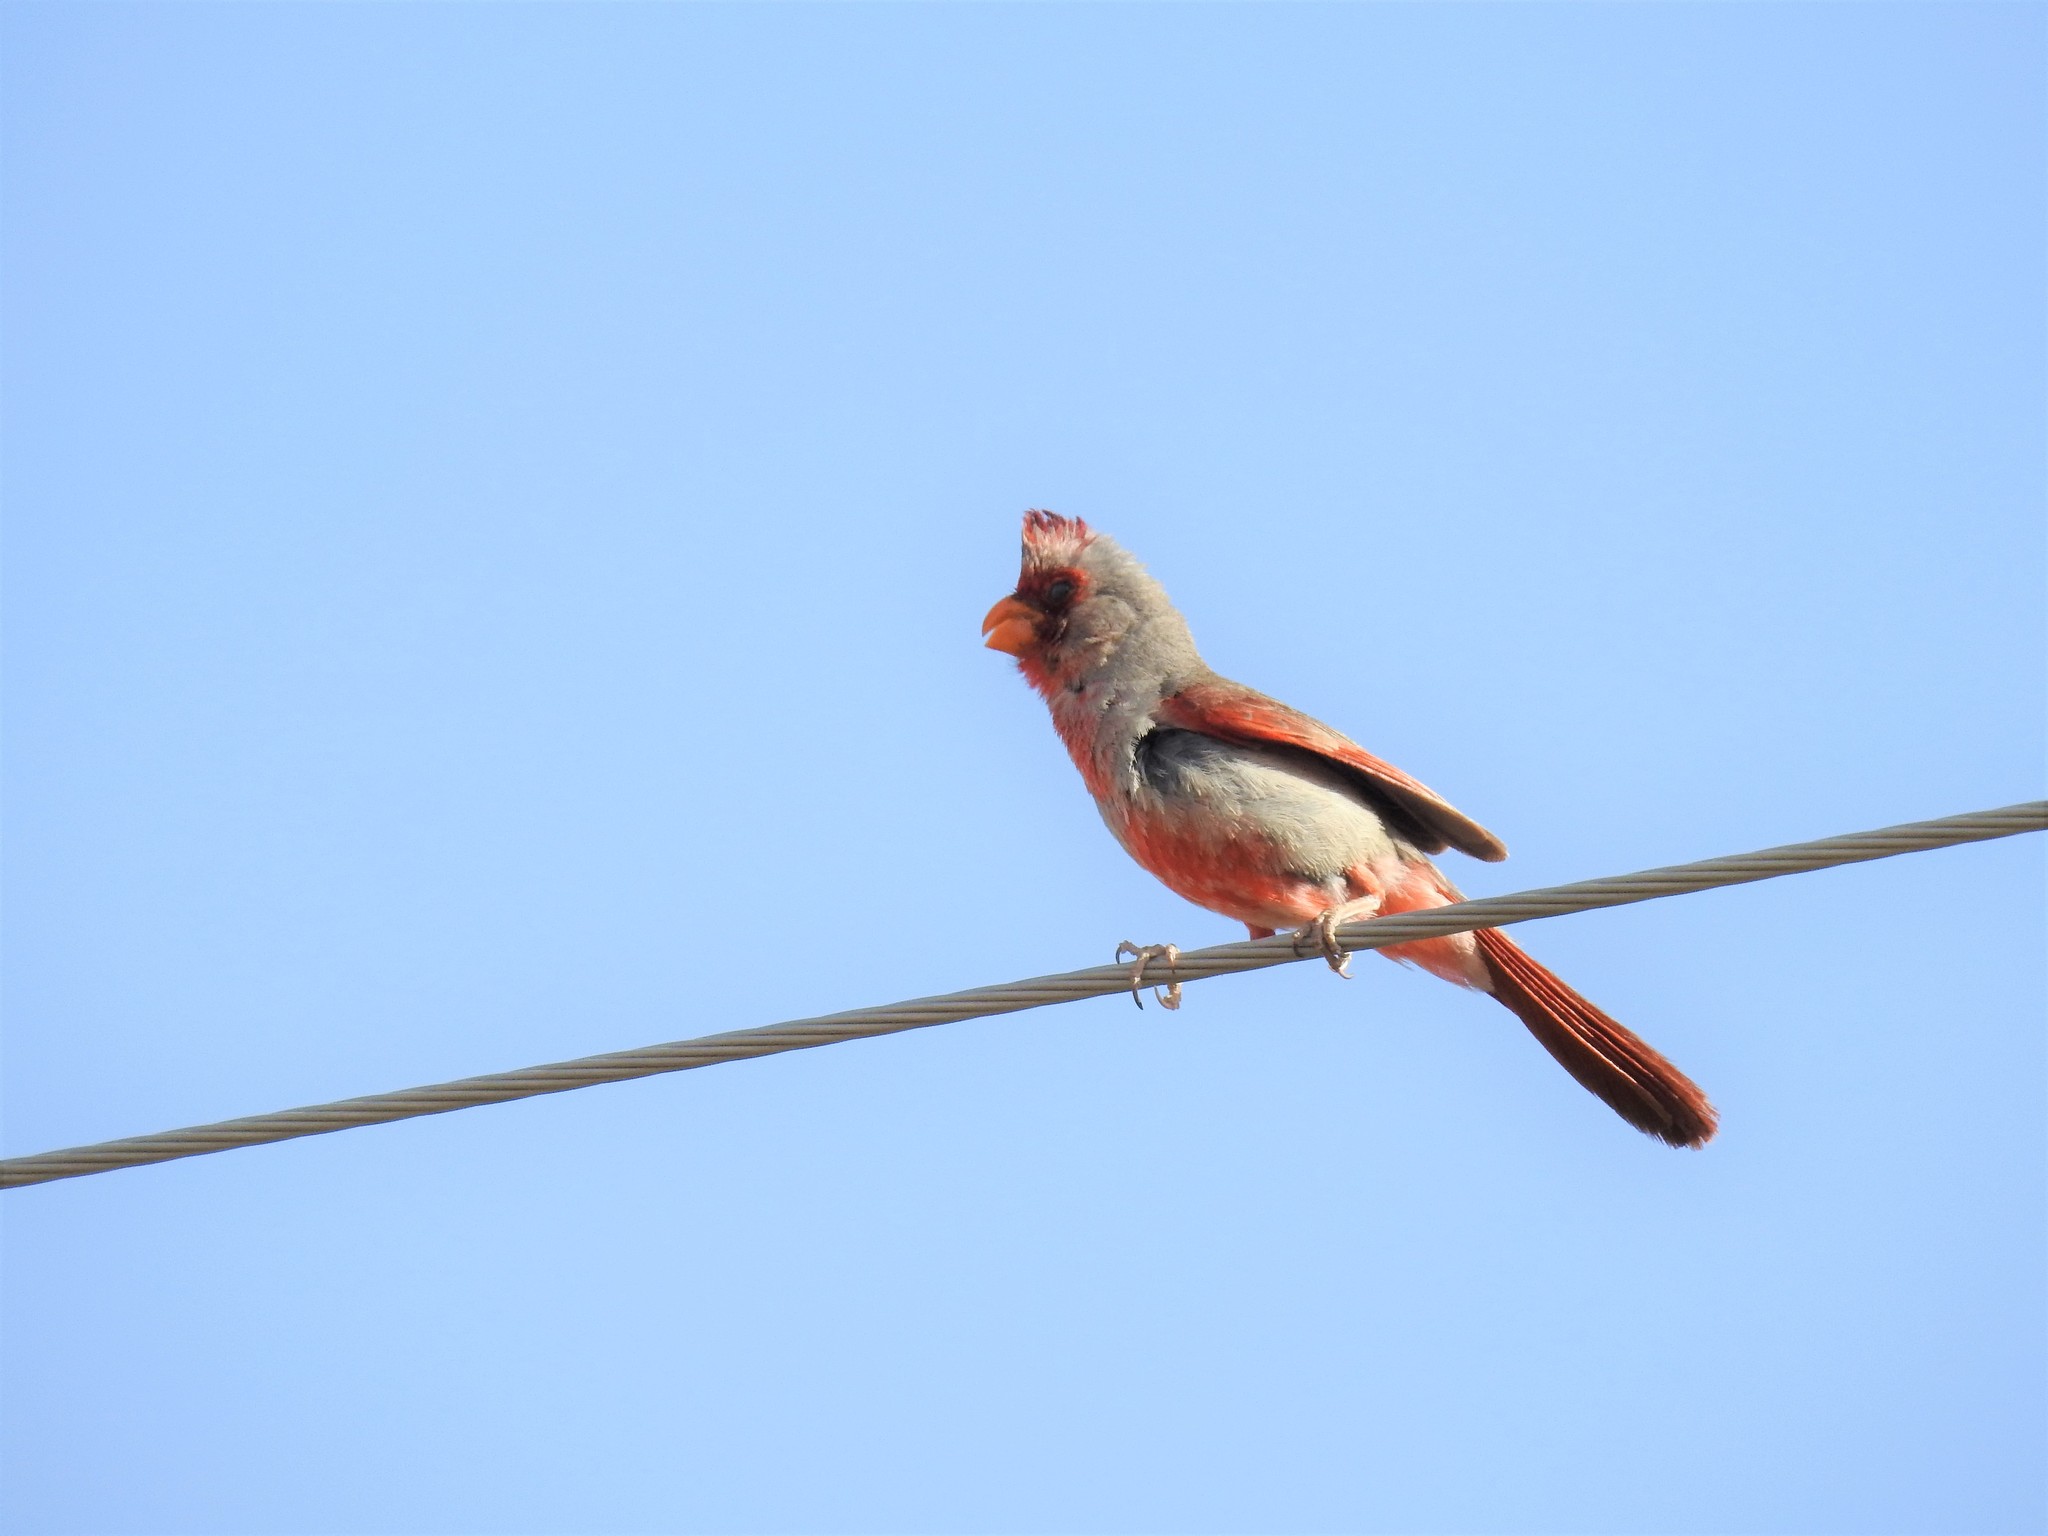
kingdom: Animalia
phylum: Chordata
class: Aves
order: Passeriformes
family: Cardinalidae
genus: Cardinalis
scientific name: Cardinalis sinuatus
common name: Pyrrhuloxia
